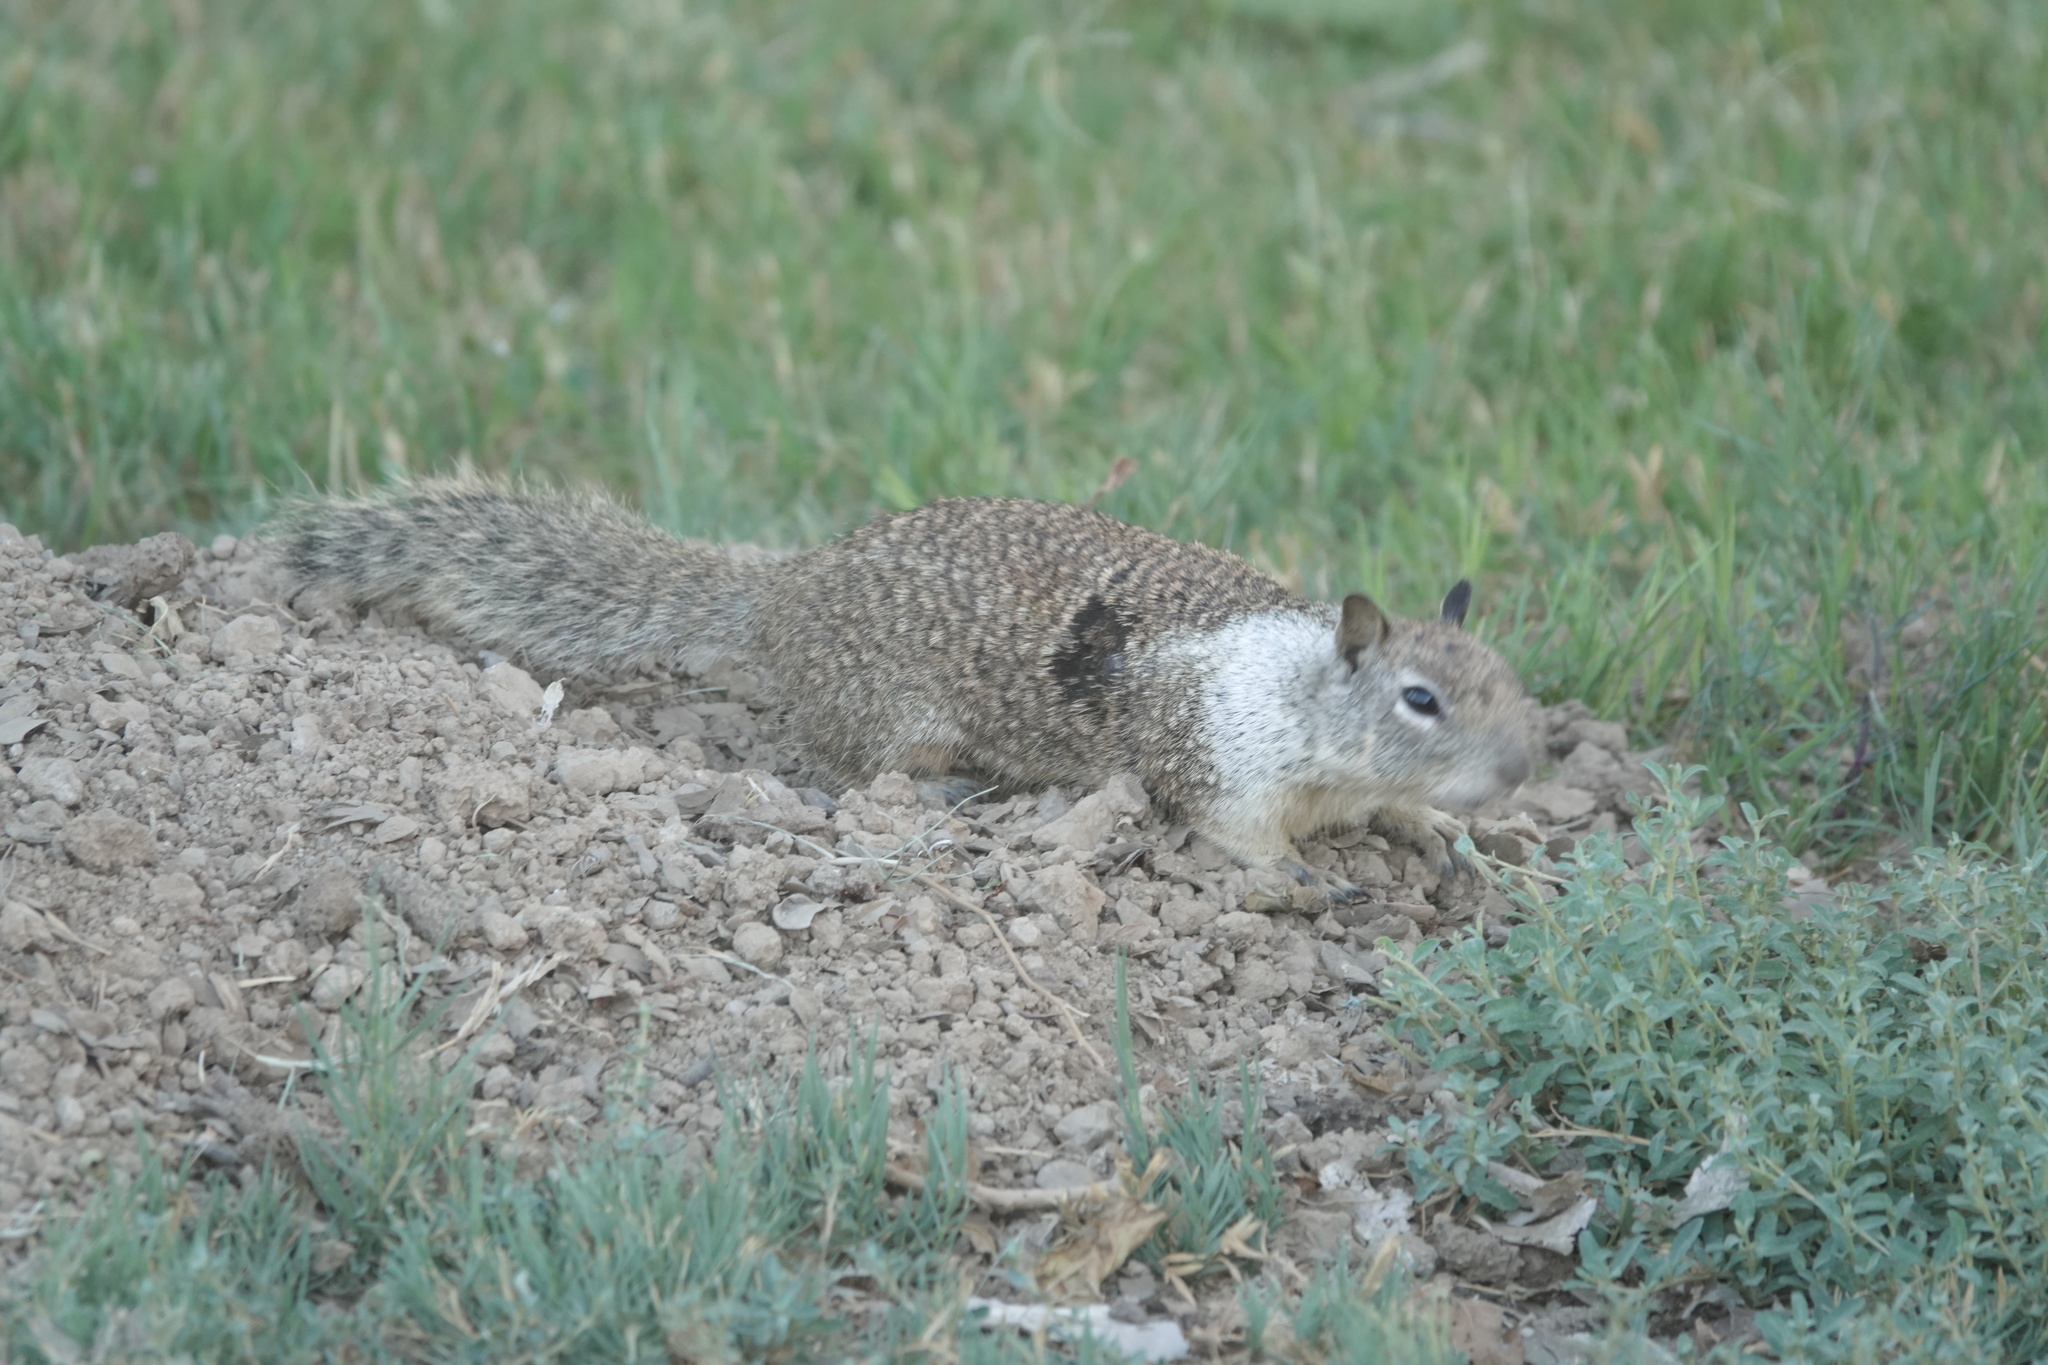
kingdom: Animalia
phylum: Chordata
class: Mammalia
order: Rodentia
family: Sciuridae
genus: Otospermophilus
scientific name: Otospermophilus beecheyi
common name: California ground squirrel
